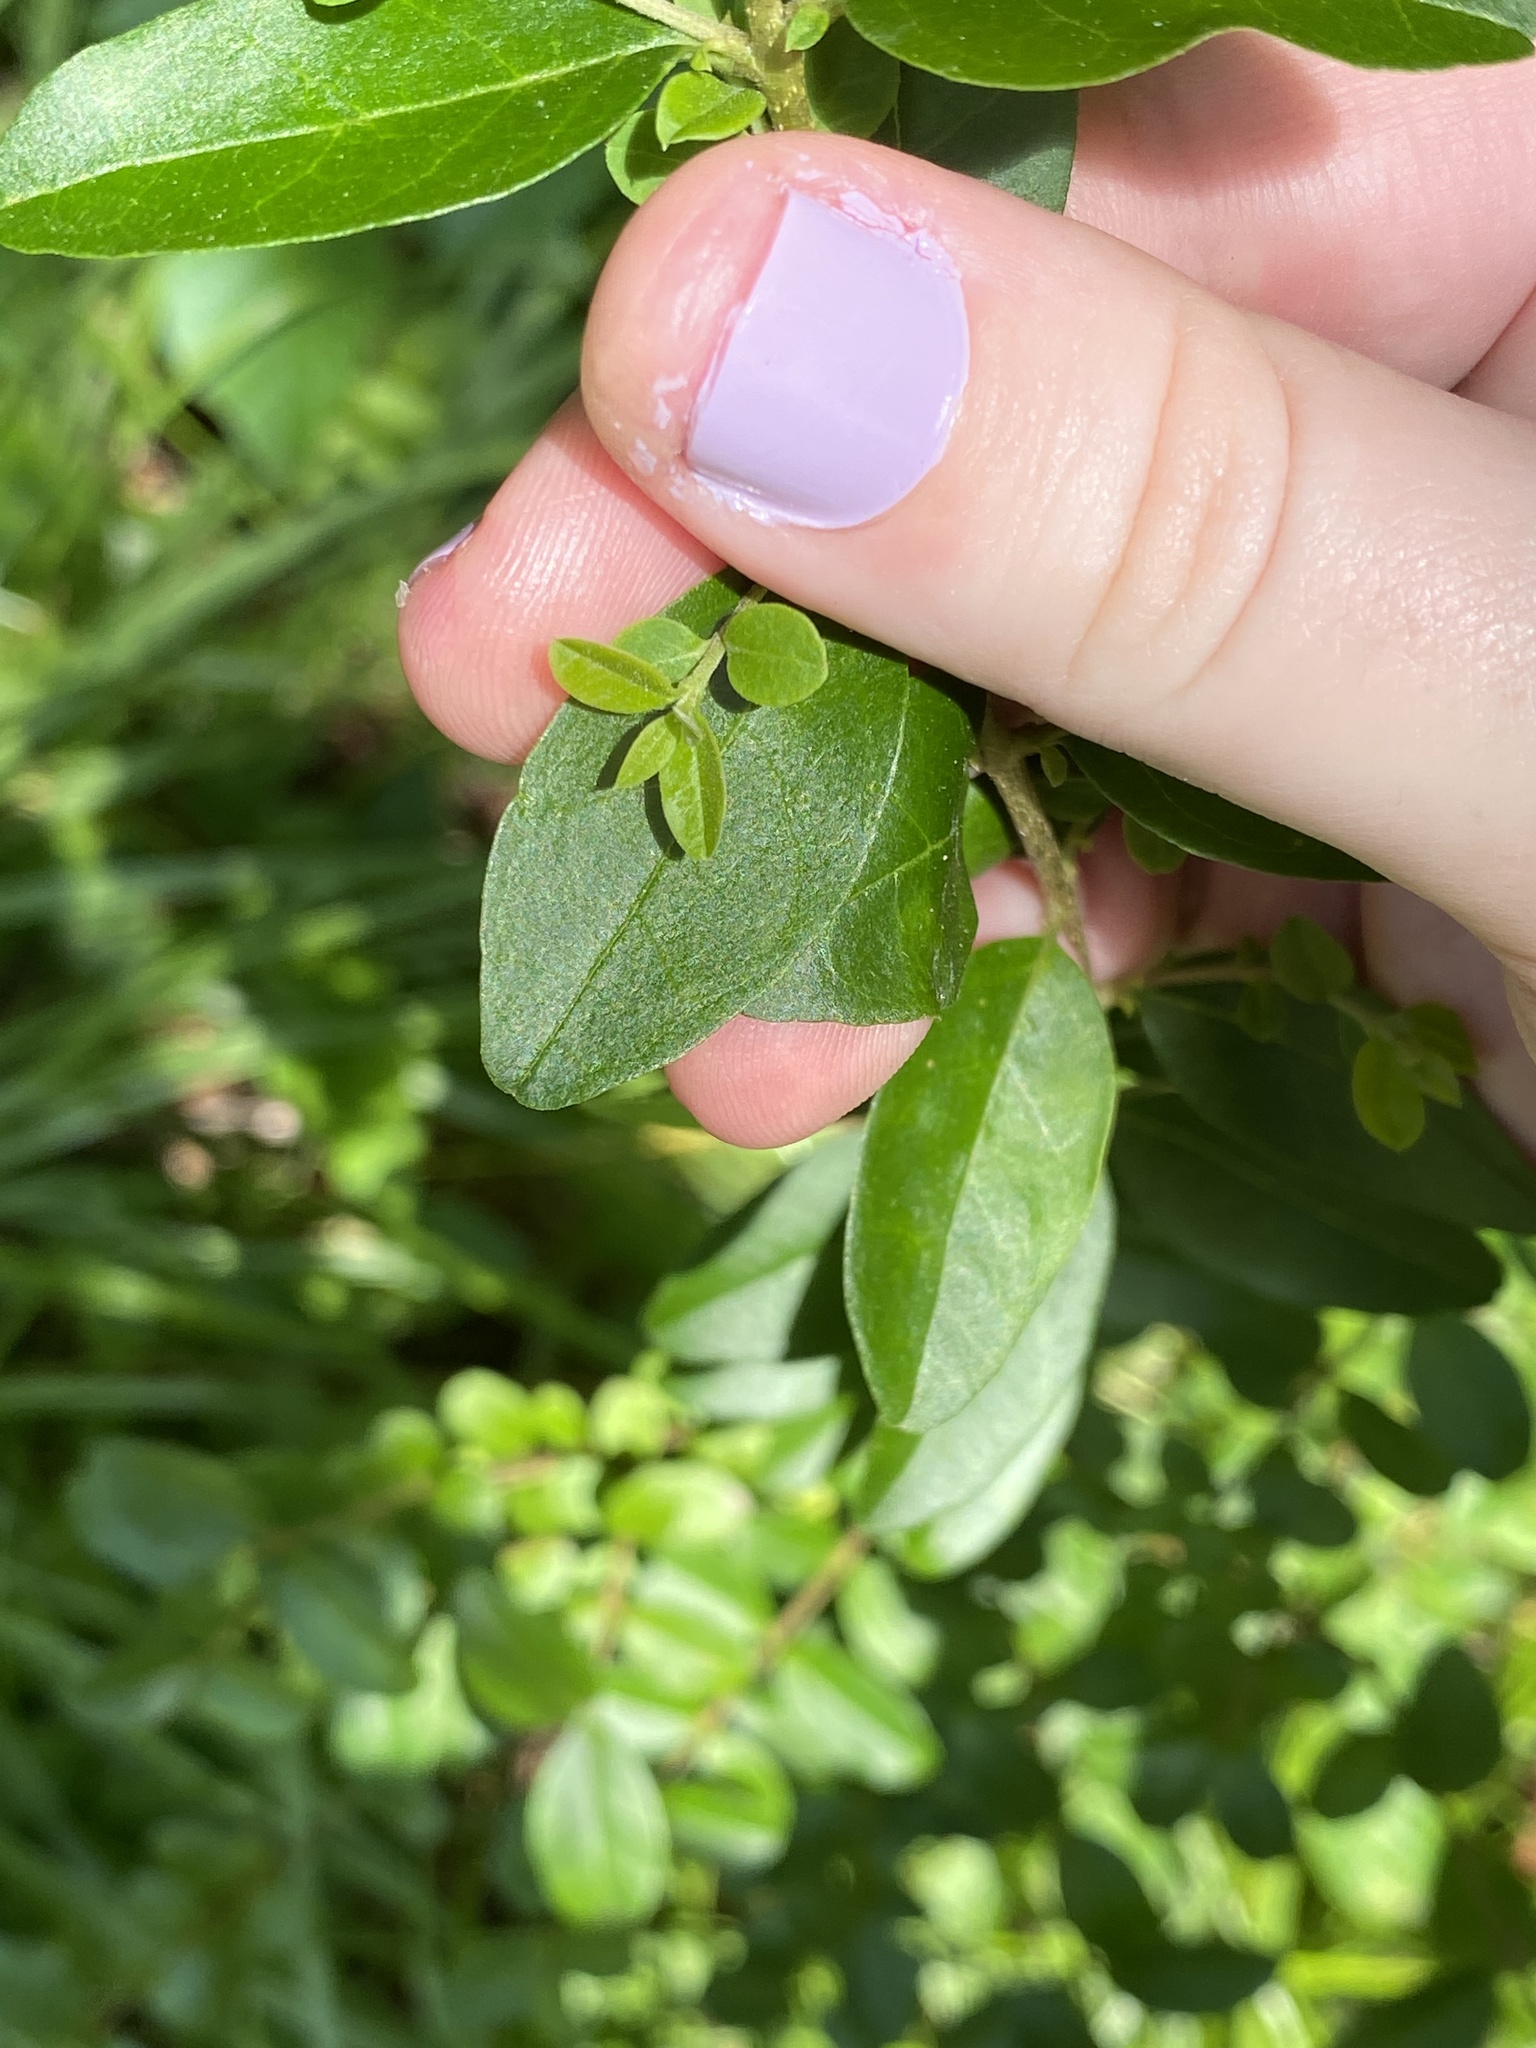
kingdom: Plantae
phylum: Tracheophyta
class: Magnoliopsida
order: Lamiales
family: Oleaceae
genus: Ligustrum
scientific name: Ligustrum sinense
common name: Chinese privet
